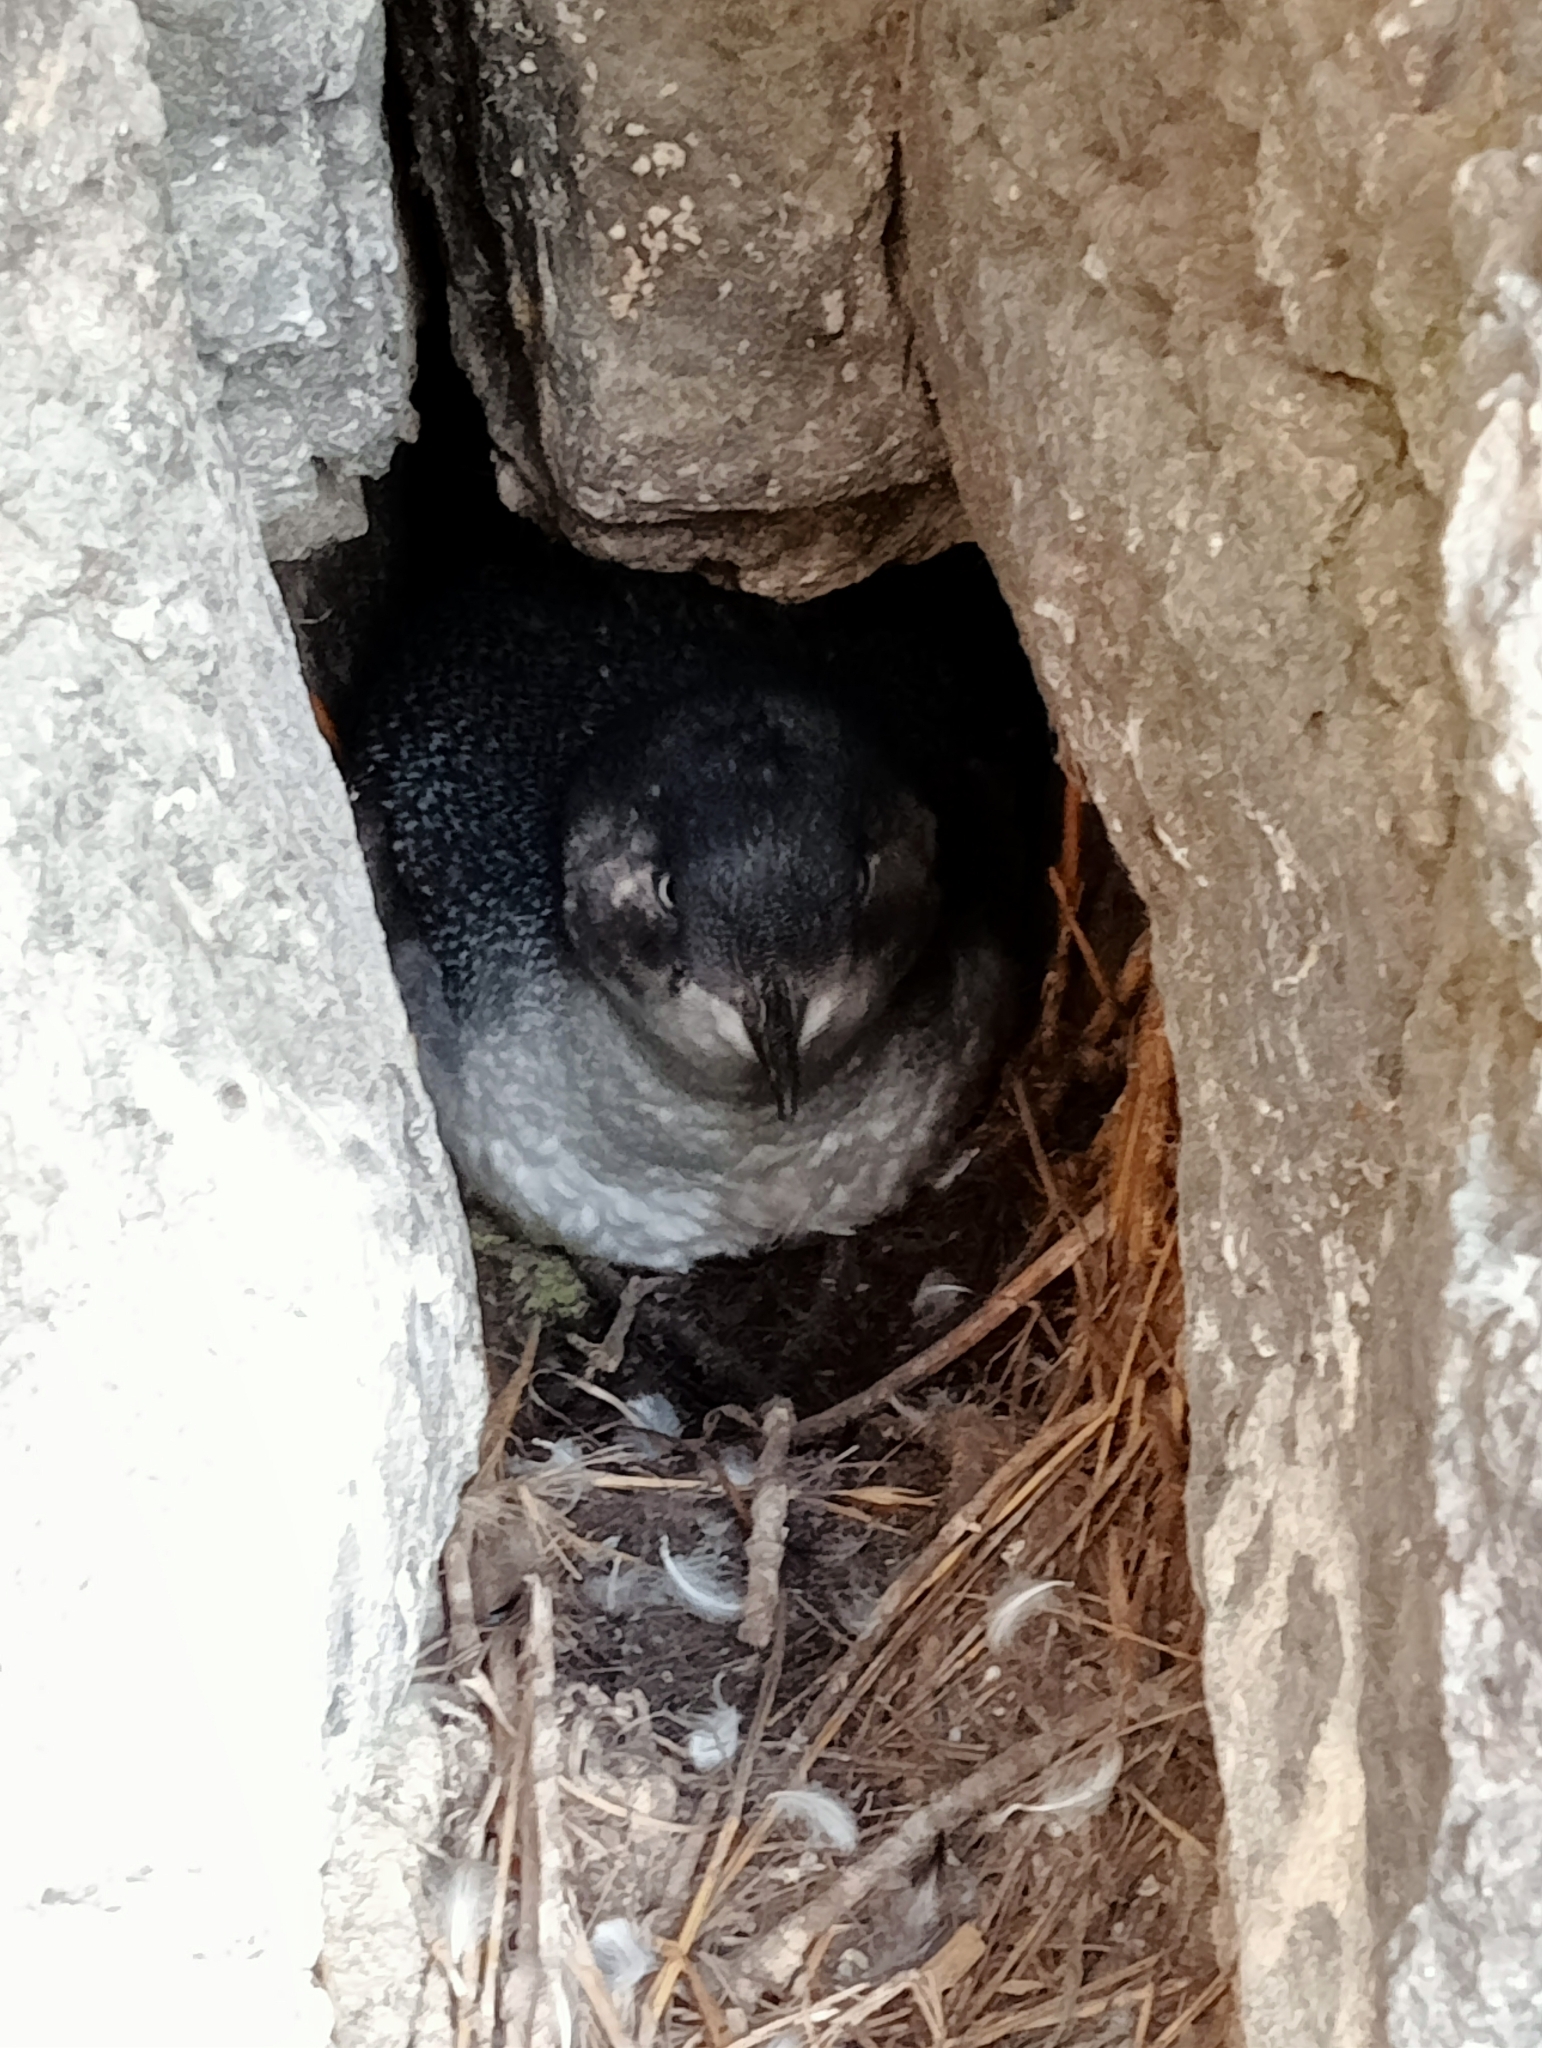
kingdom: Animalia
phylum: Chordata
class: Aves
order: Sphenisciformes
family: Spheniscidae
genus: Eudyptula
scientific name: Eudyptula minor
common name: Little penguin
